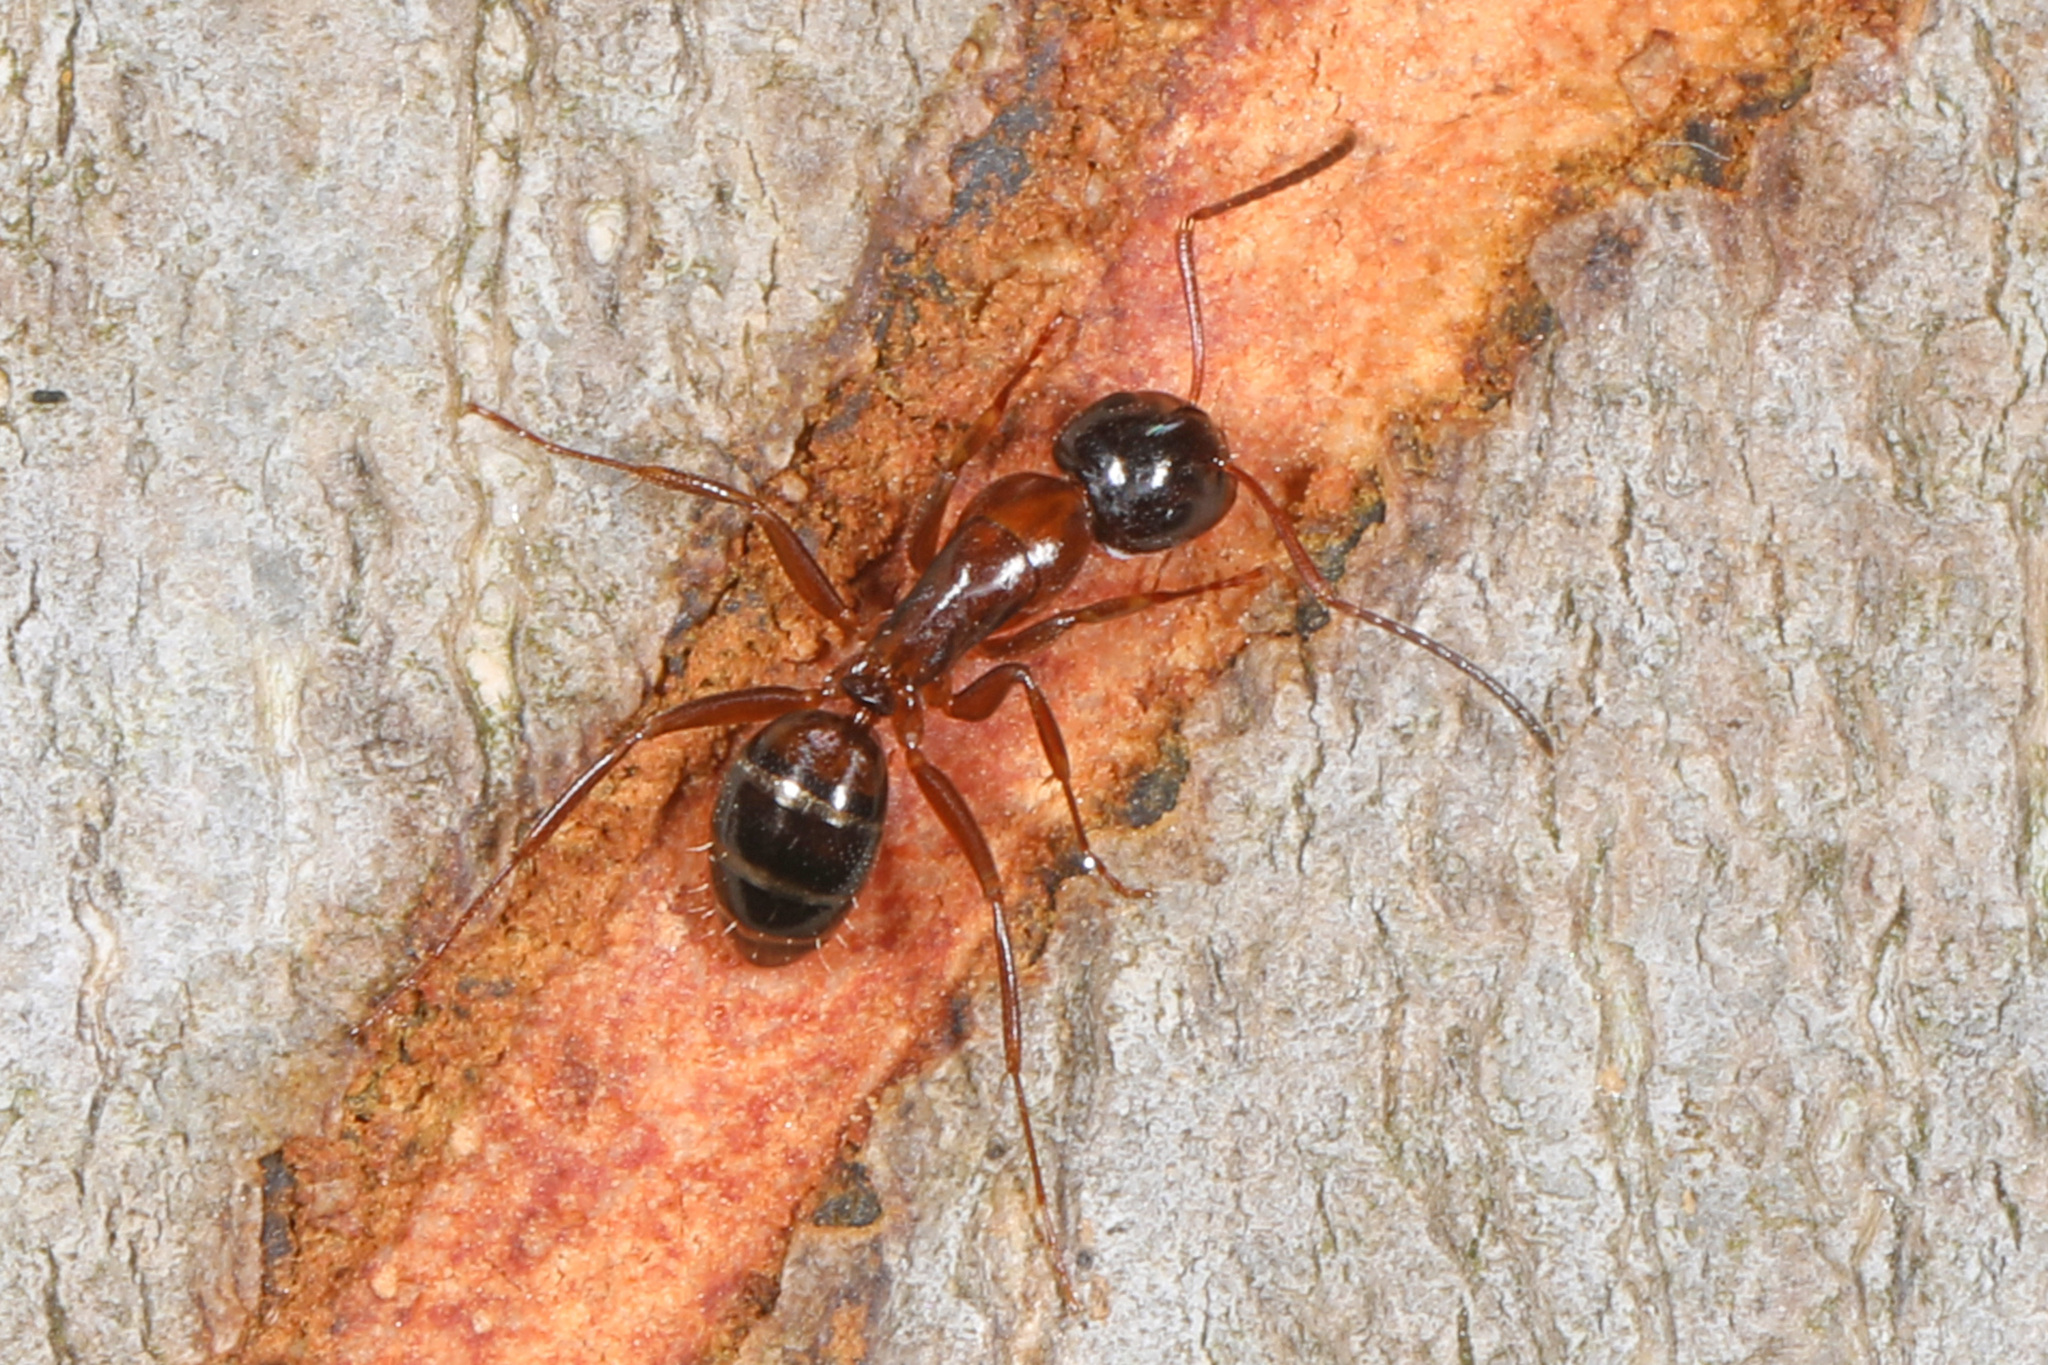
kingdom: Animalia
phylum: Arthropoda
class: Insecta
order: Hymenoptera
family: Formicidae
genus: Camponotus
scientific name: Camponotus nearcticus
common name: Smaller carpenter ant
